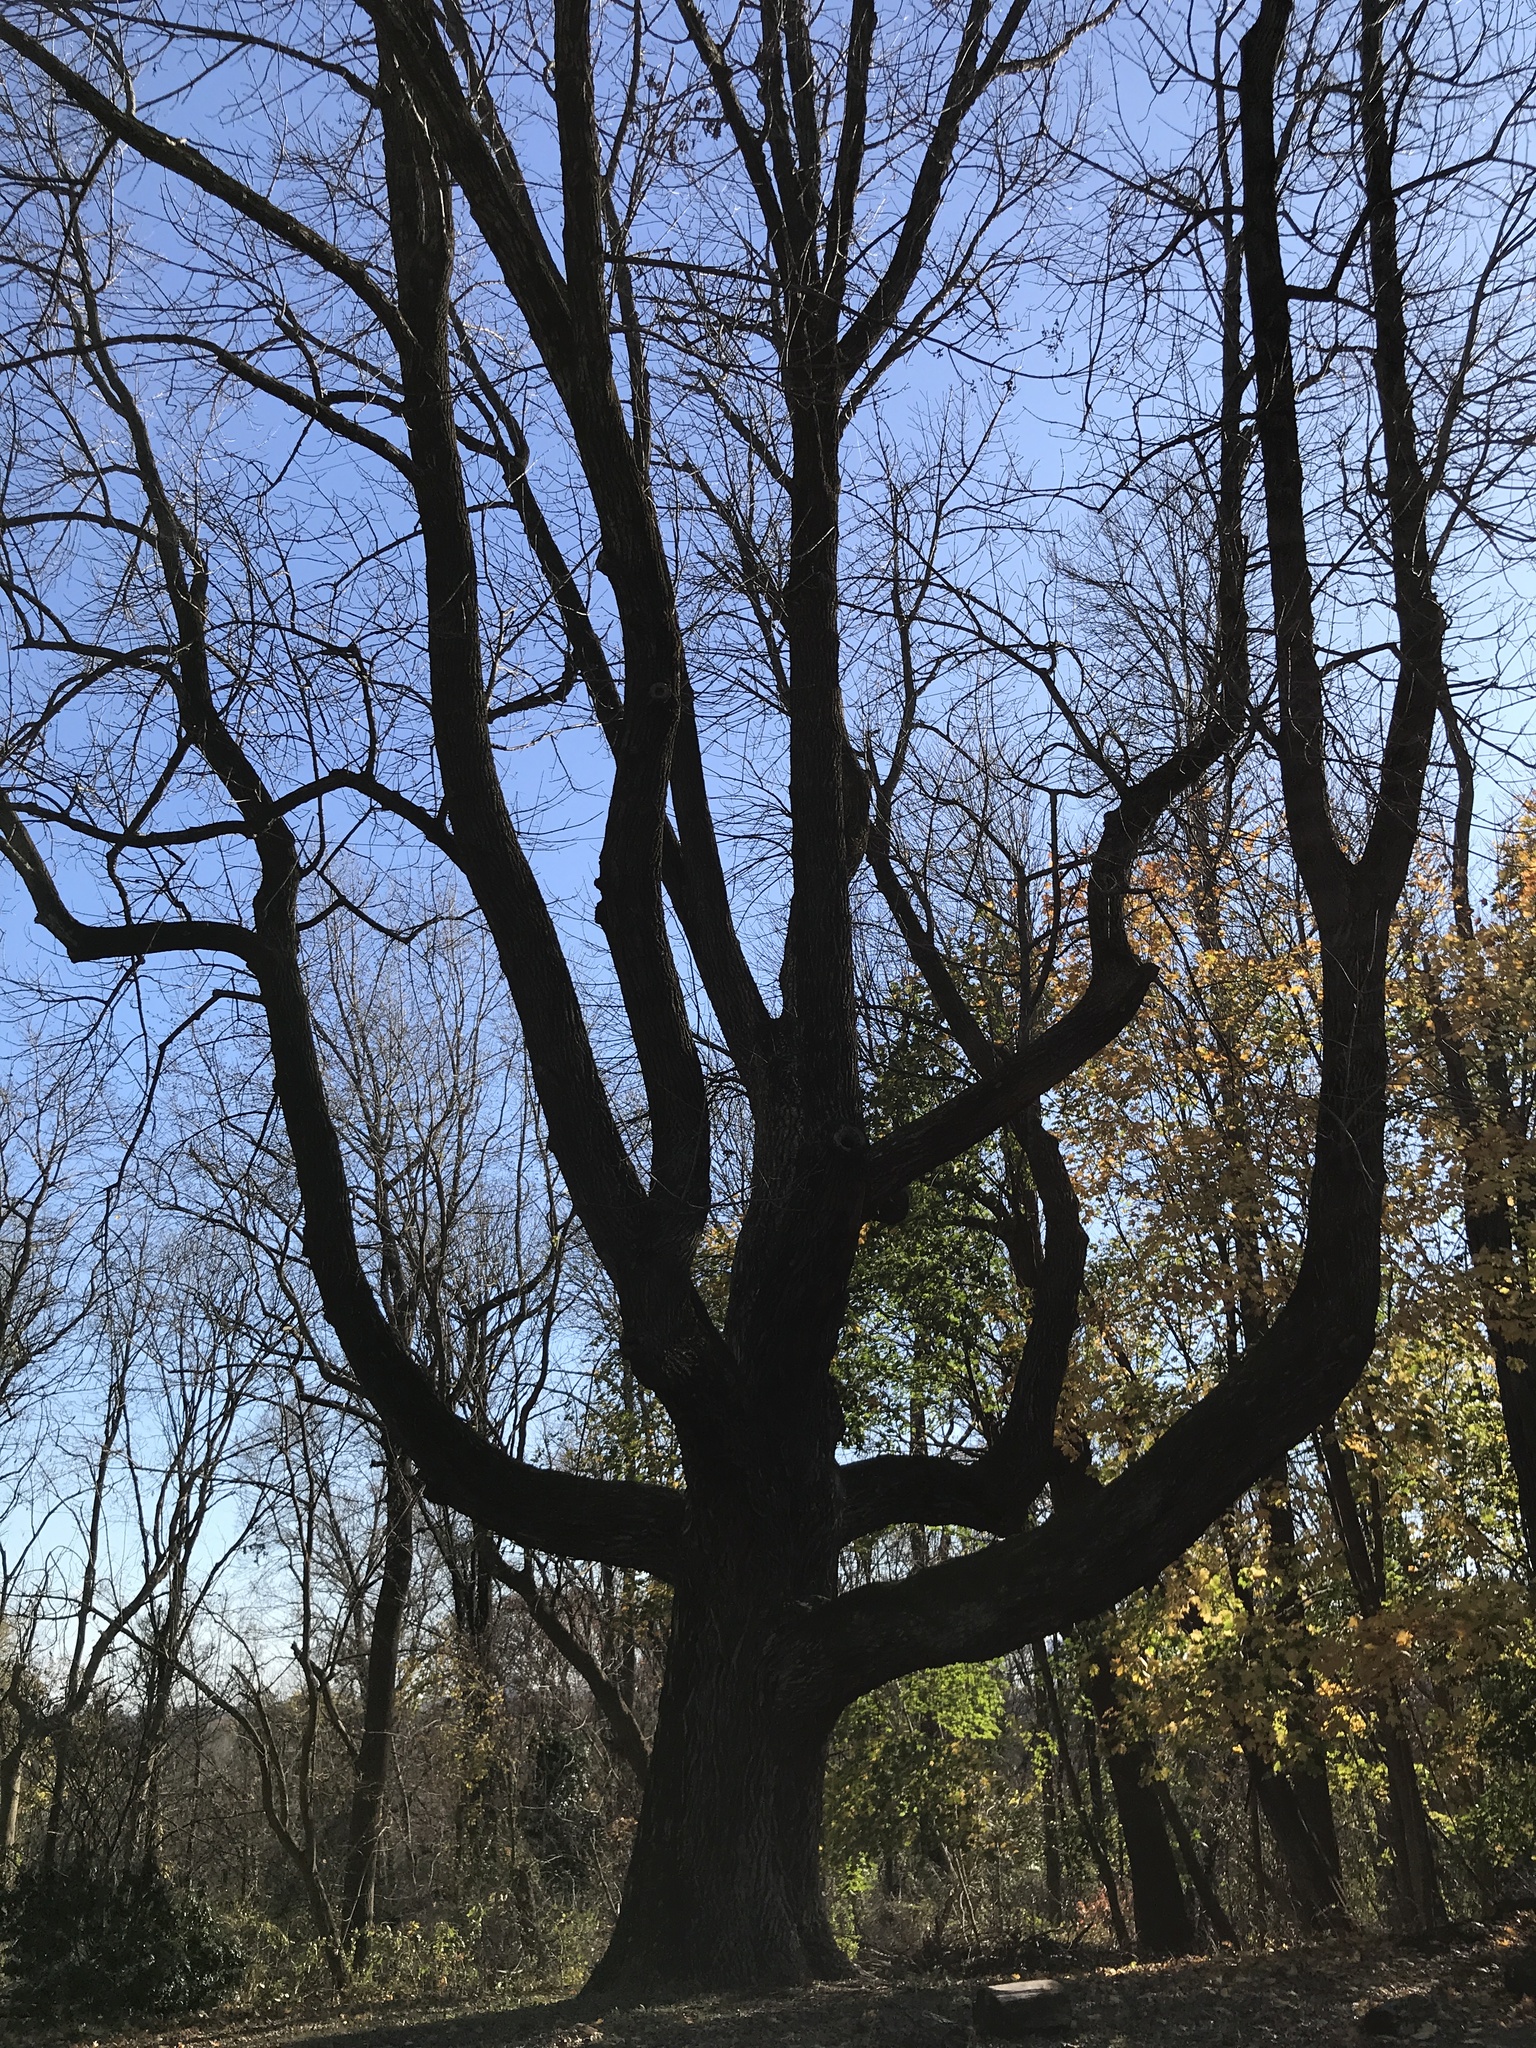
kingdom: Plantae
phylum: Tracheophyta
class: Magnoliopsida
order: Lamiales
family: Oleaceae
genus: Fraxinus
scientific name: Fraxinus americana
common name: White ash
